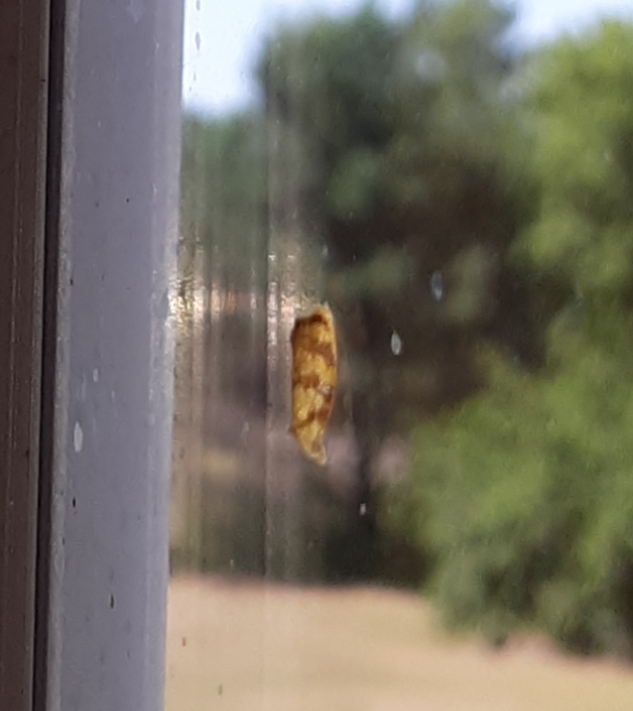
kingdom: Animalia
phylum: Arthropoda
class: Insecta
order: Lepidoptera
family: Tortricidae
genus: Acleris
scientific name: Acleris albicomana
